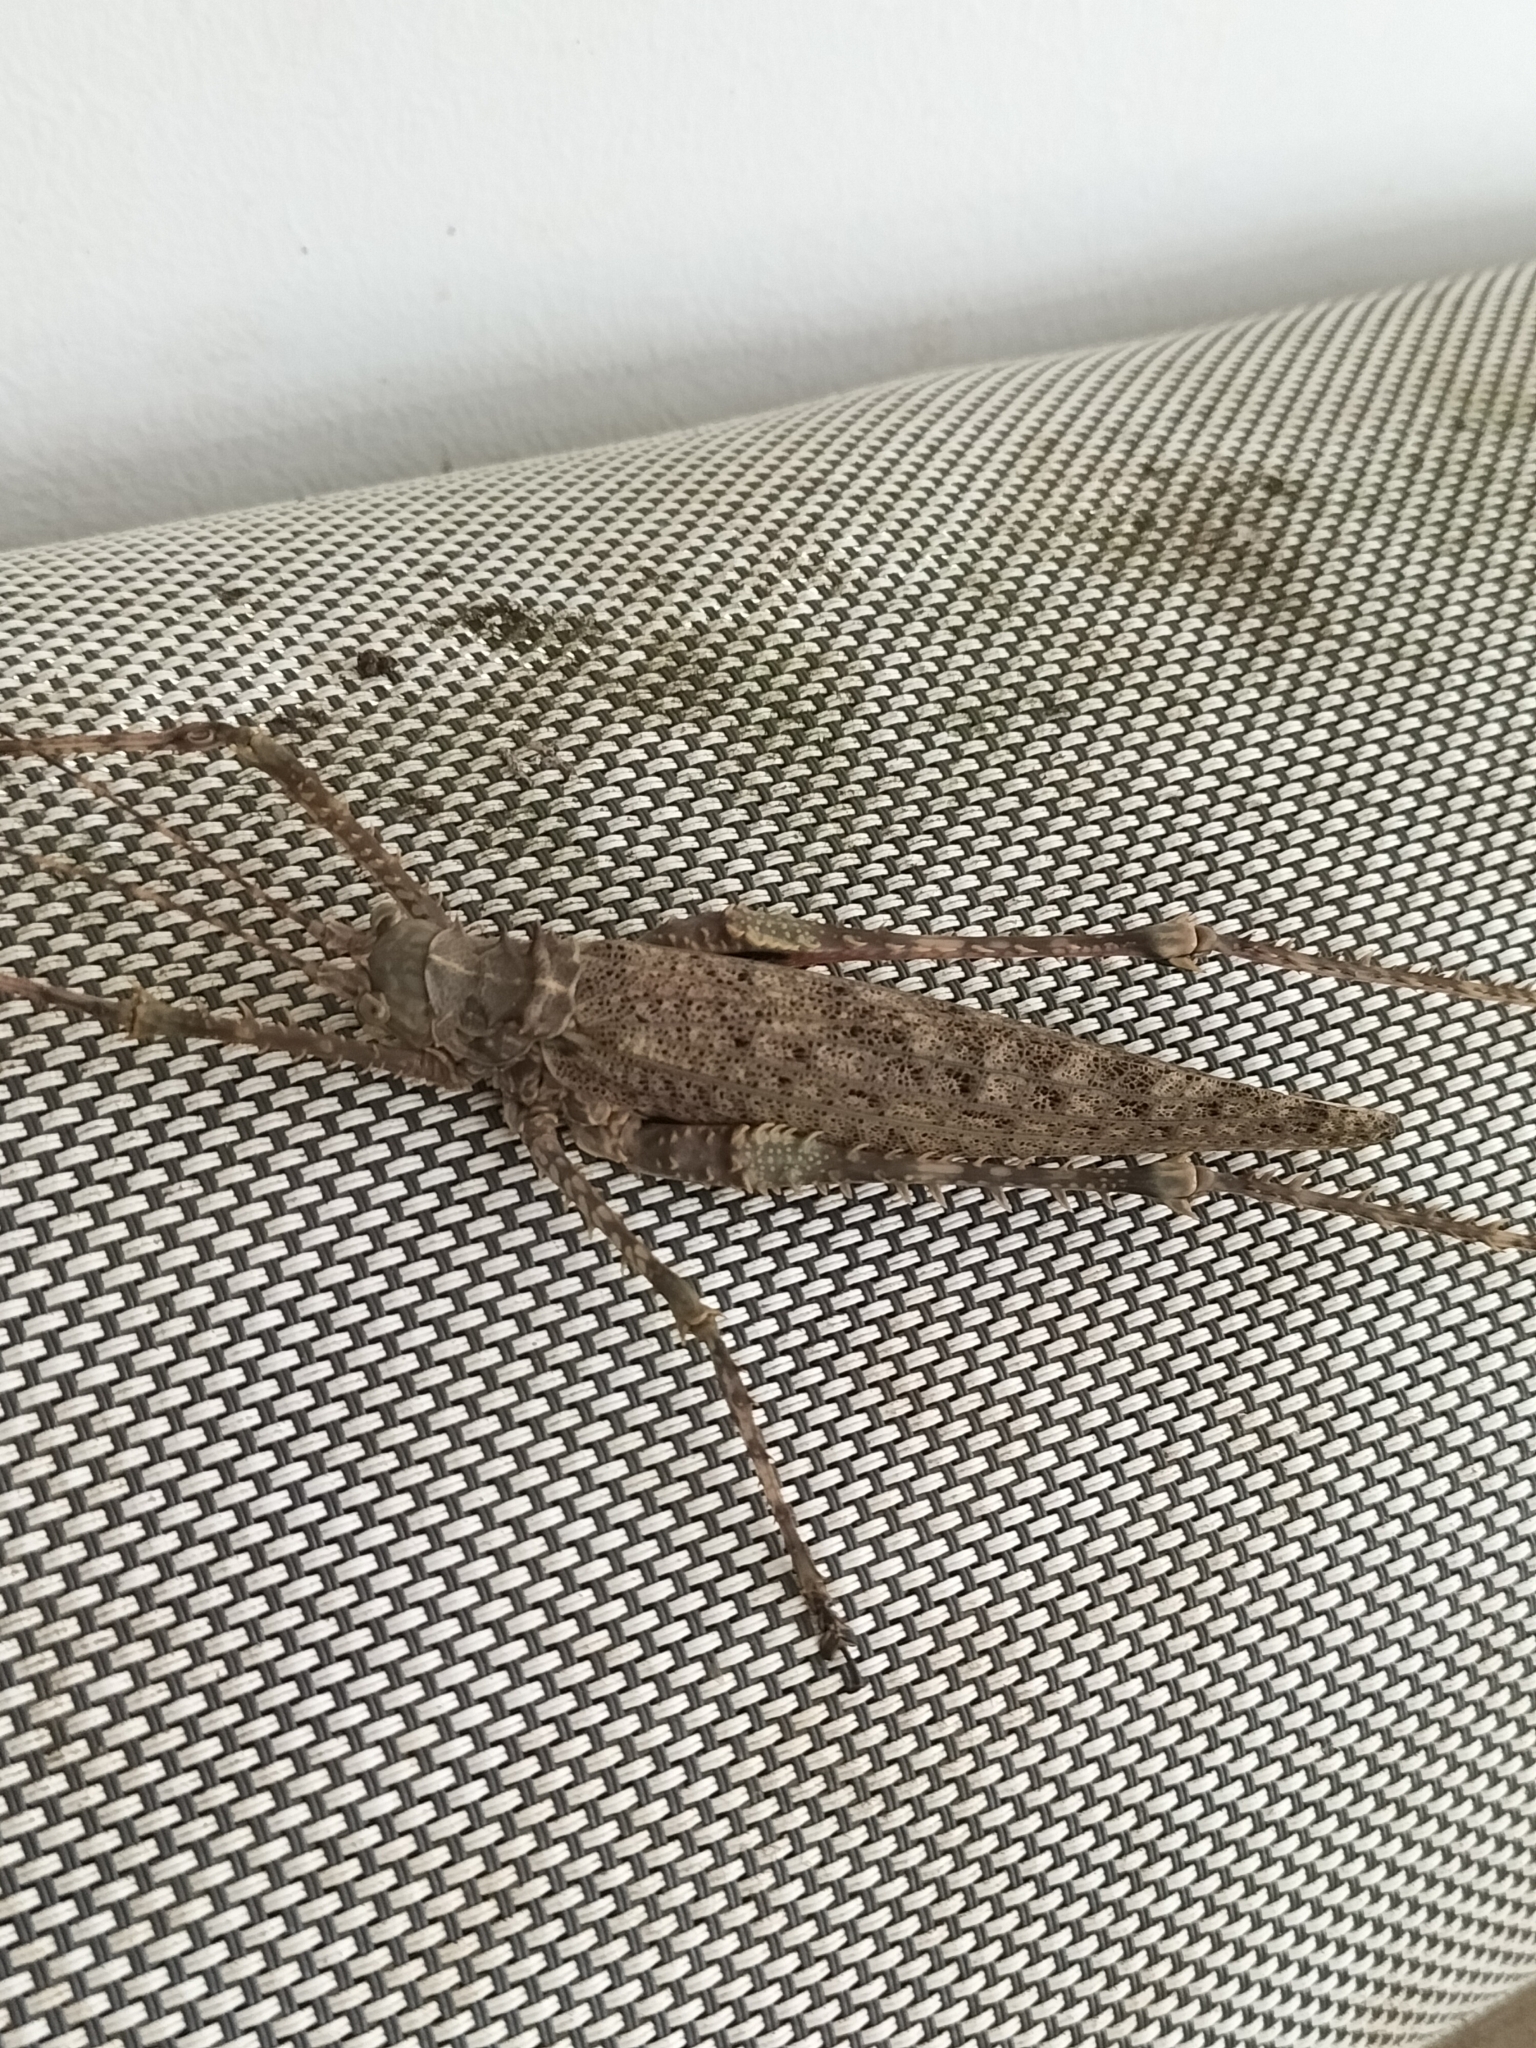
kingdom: Animalia
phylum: Arthropoda
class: Insecta
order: Orthoptera
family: Tettigoniidae
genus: Phricta
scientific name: Phricta spinosa
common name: Giant spiny forest katydid
